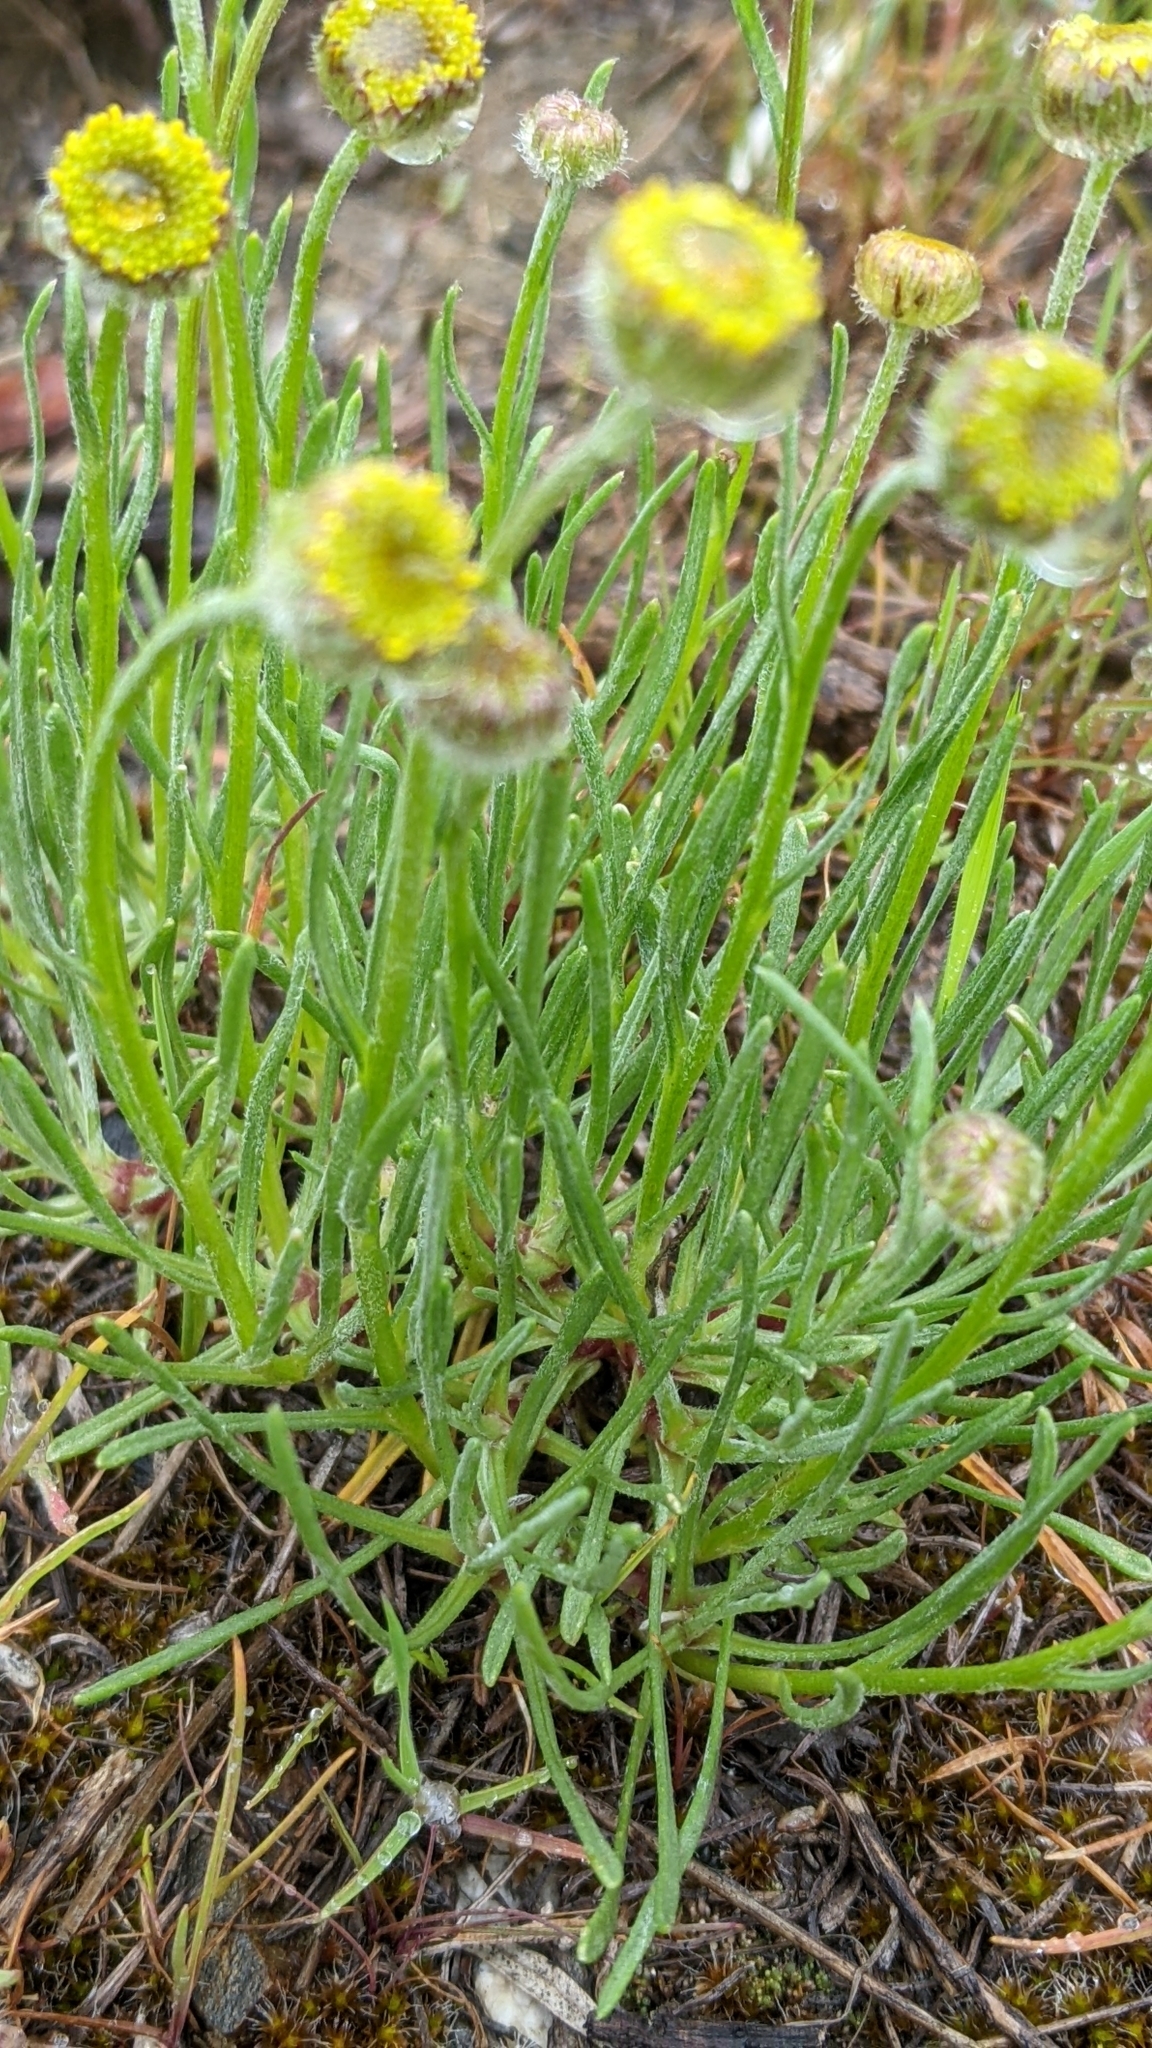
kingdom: Plantae
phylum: Tracheophyta
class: Magnoliopsida
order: Asterales
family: Asteraceae
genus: Erigeron
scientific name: Erigeron linearis
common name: Desert yellow fleabane
